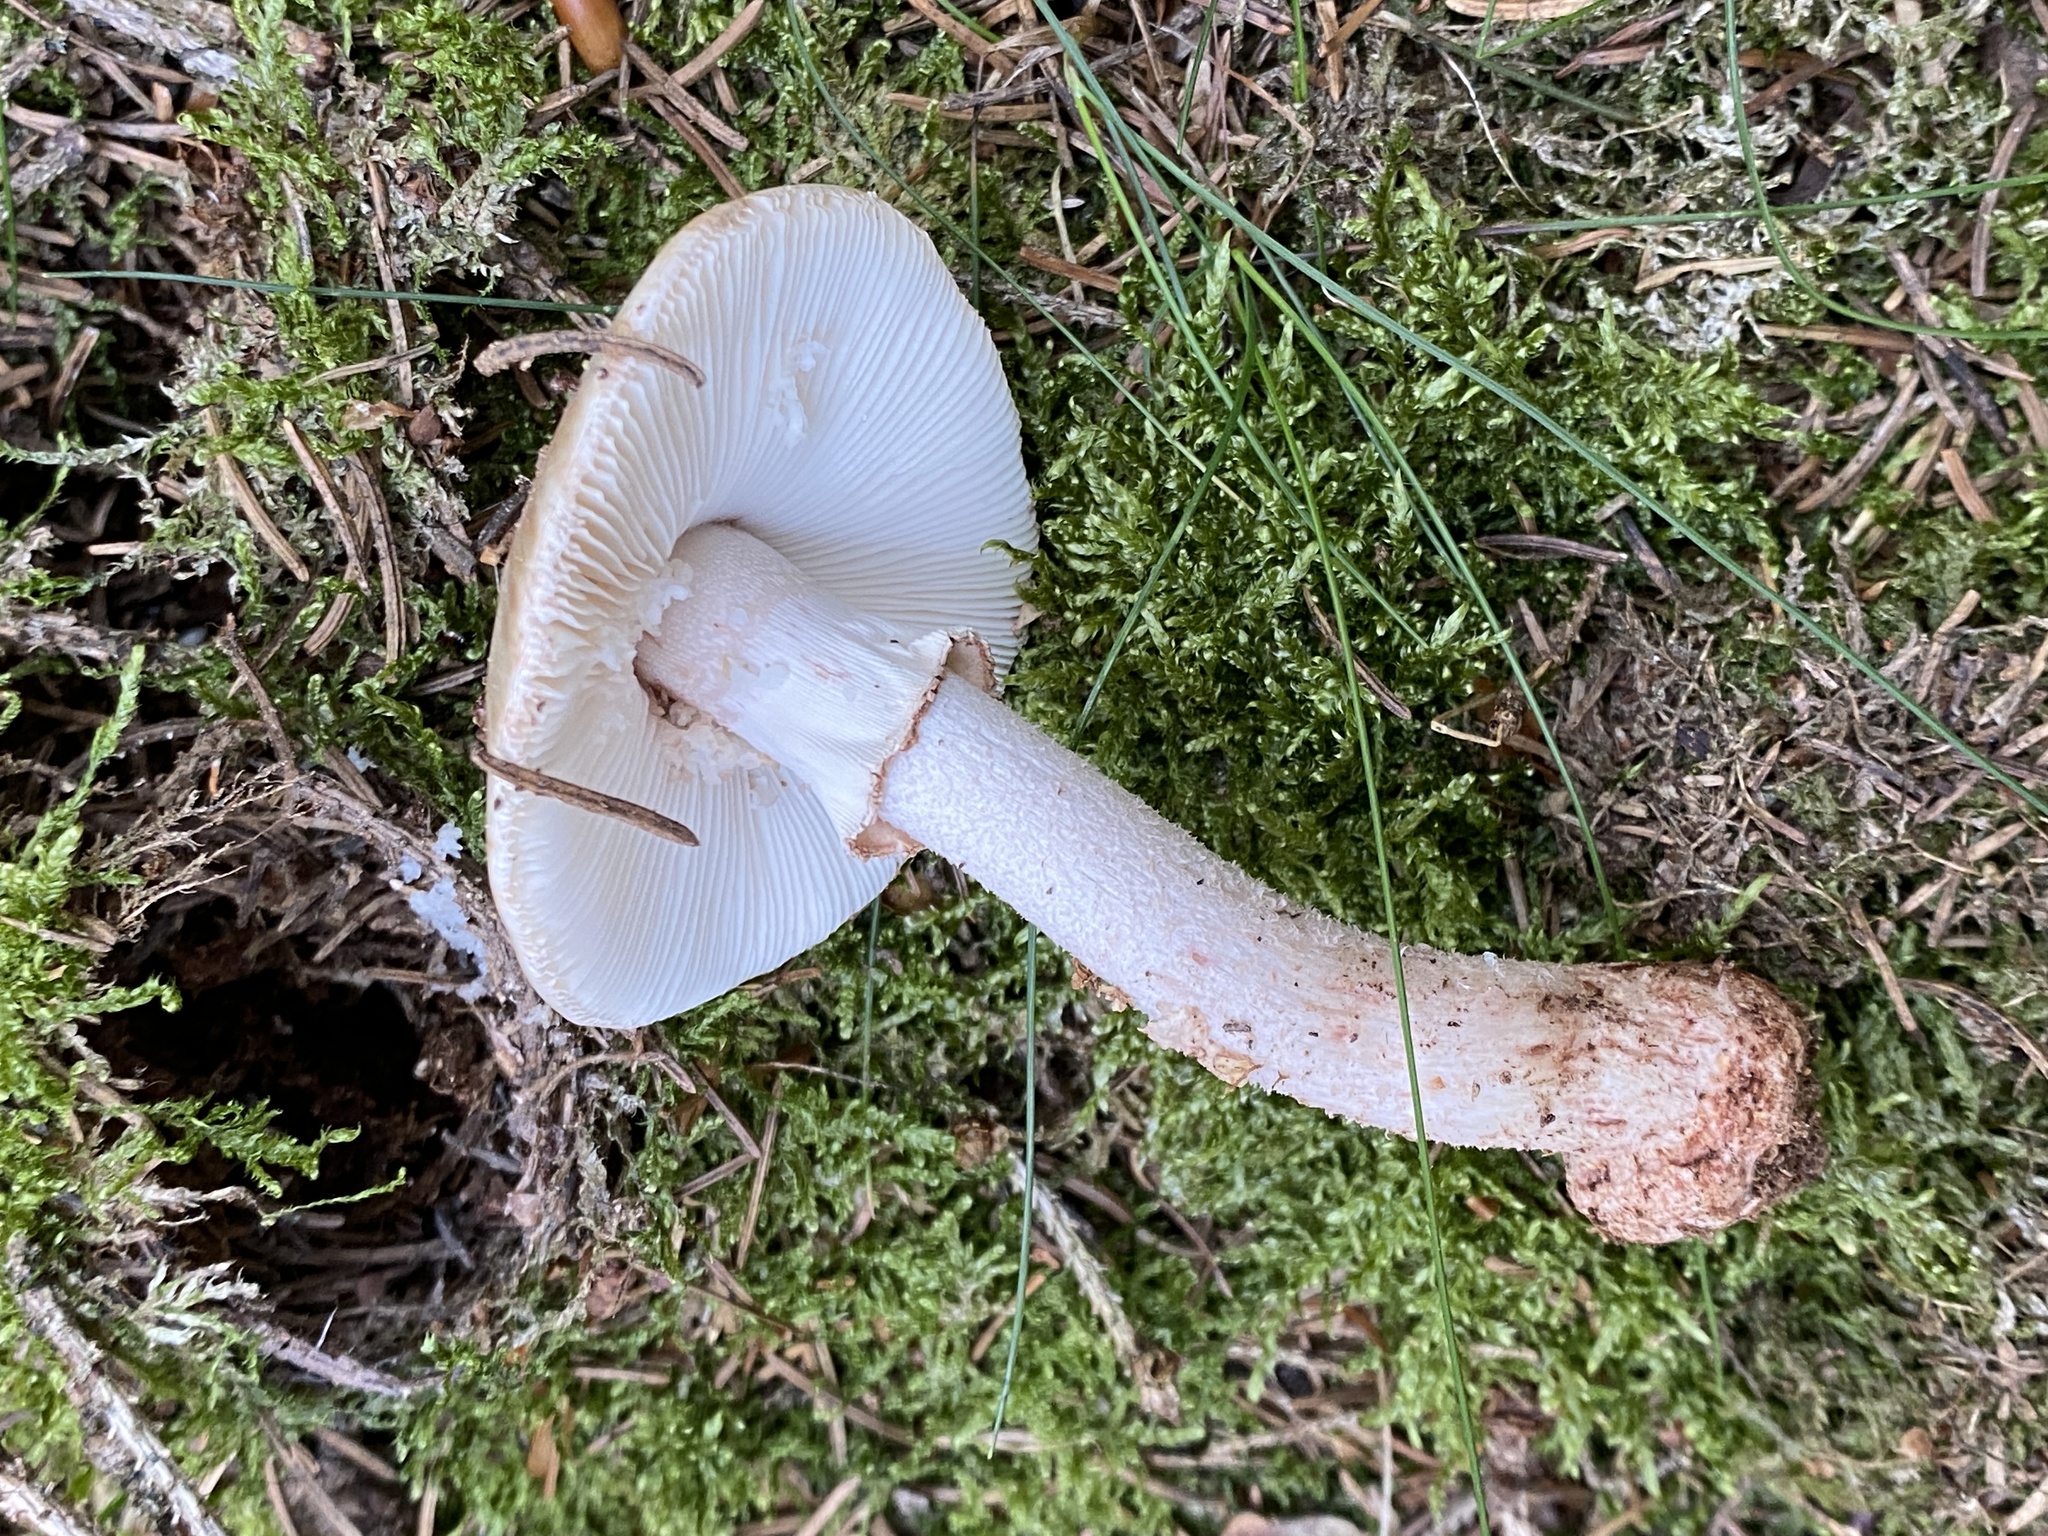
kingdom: Fungi
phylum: Basidiomycota
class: Agaricomycetes
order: Agaricales
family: Amanitaceae
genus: Amanita
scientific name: Amanita rubescens
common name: Blusher
